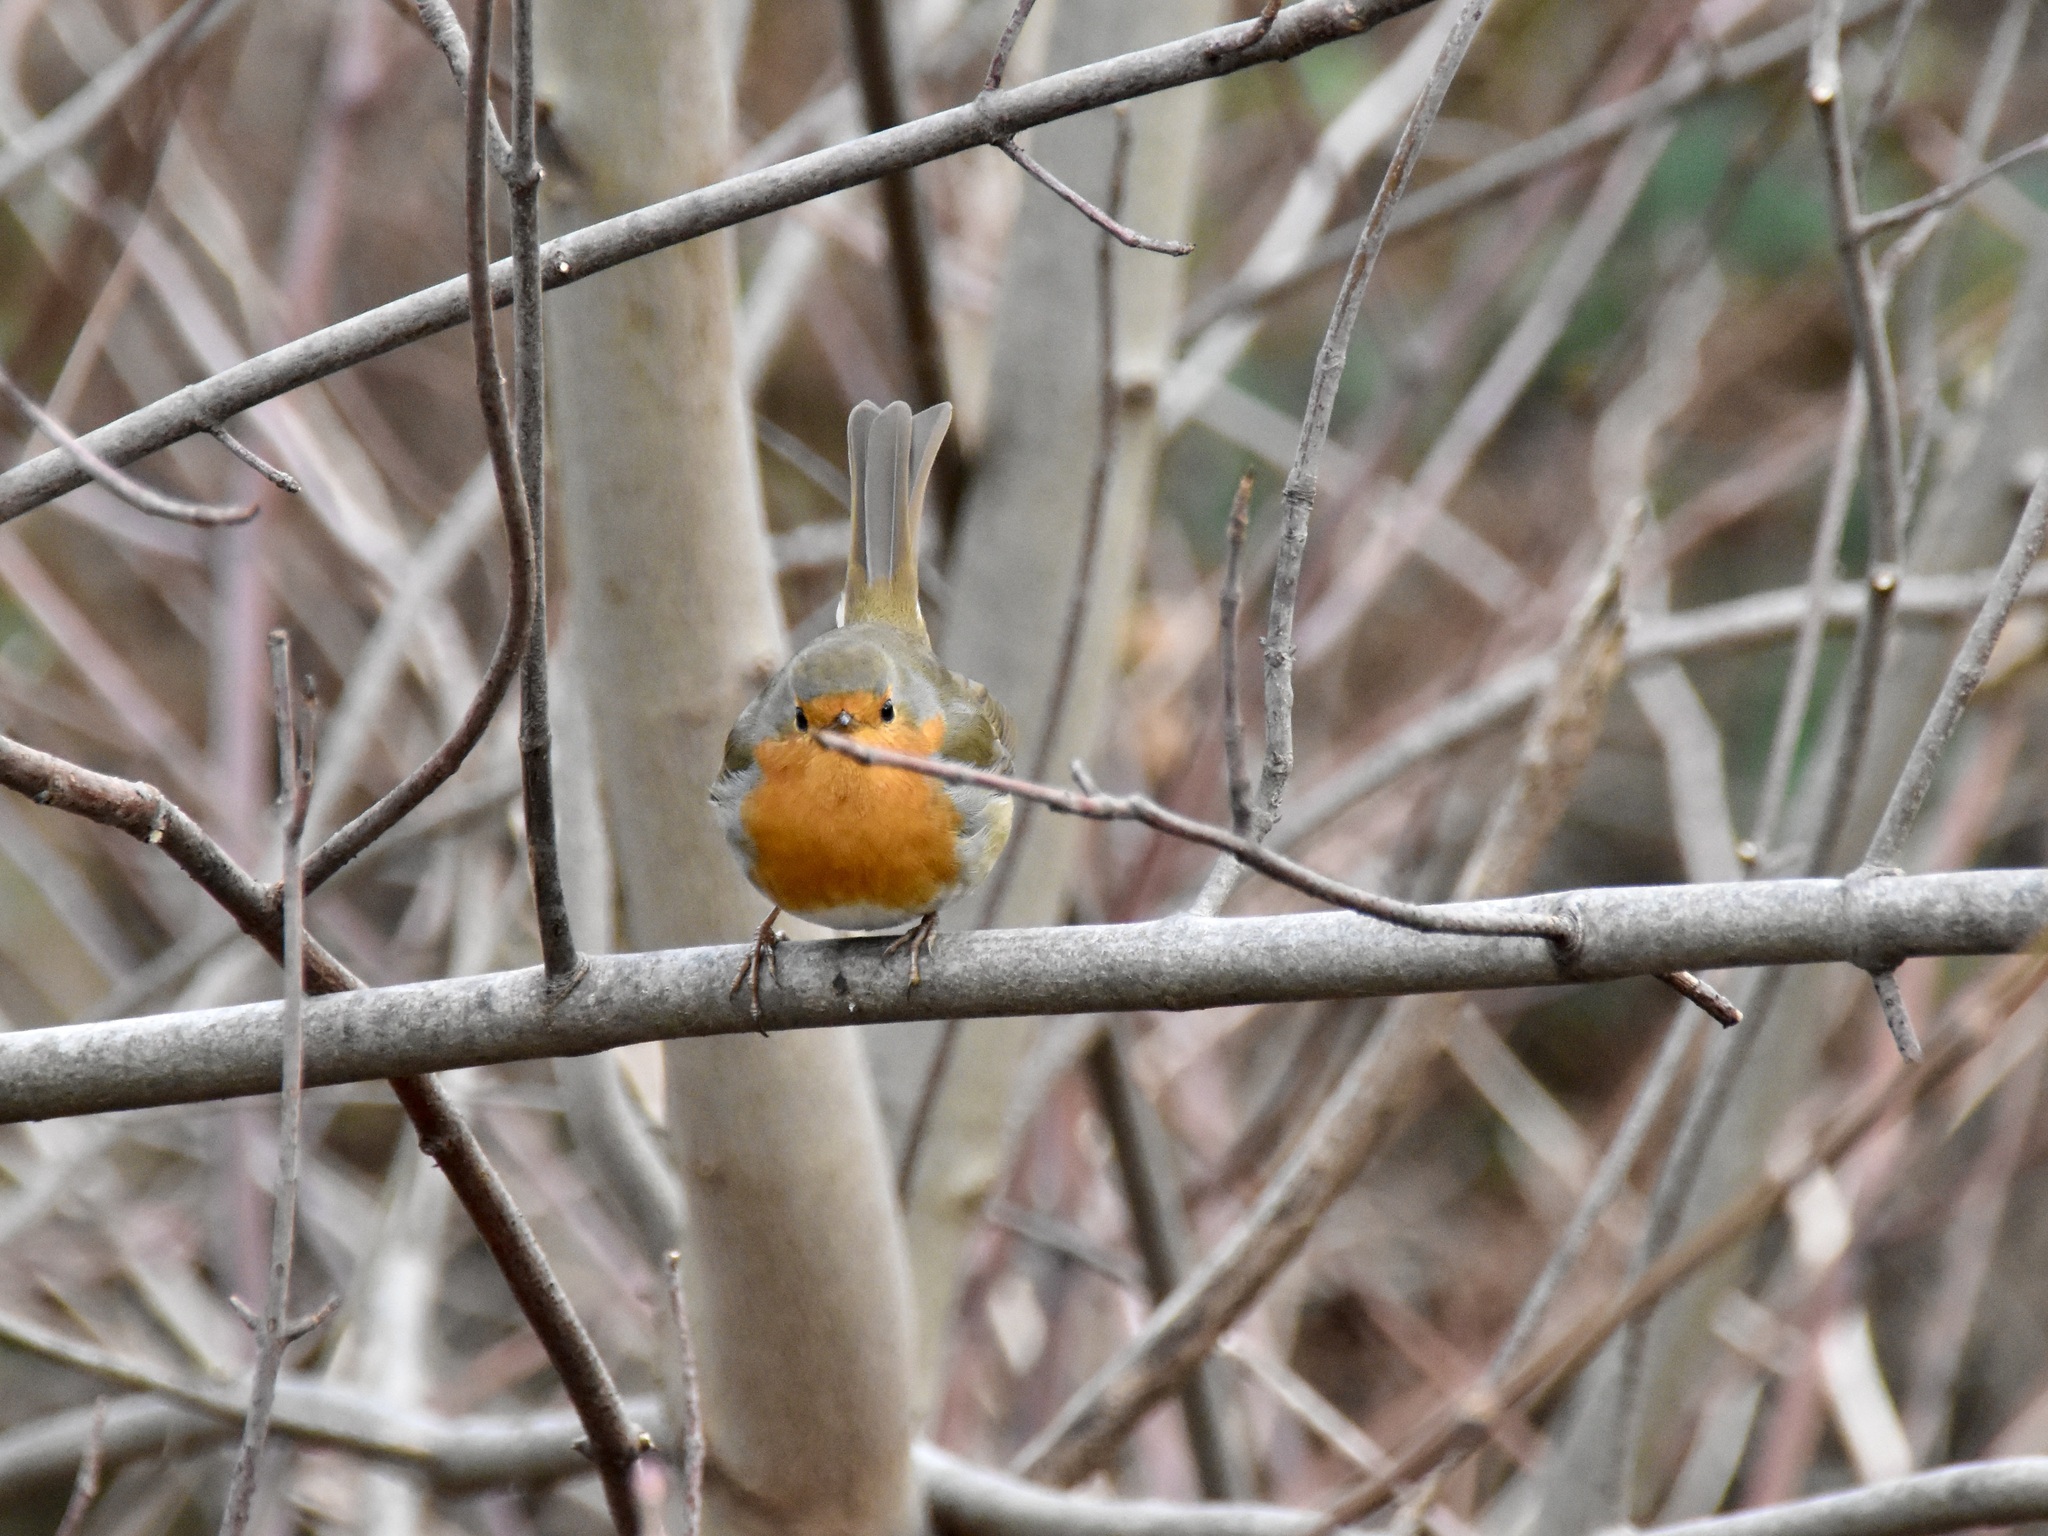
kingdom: Animalia
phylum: Chordata
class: Aves
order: Passeriformes
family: Muscicapidae
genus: Erithacus
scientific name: Erithacus rubecula
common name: European robin
